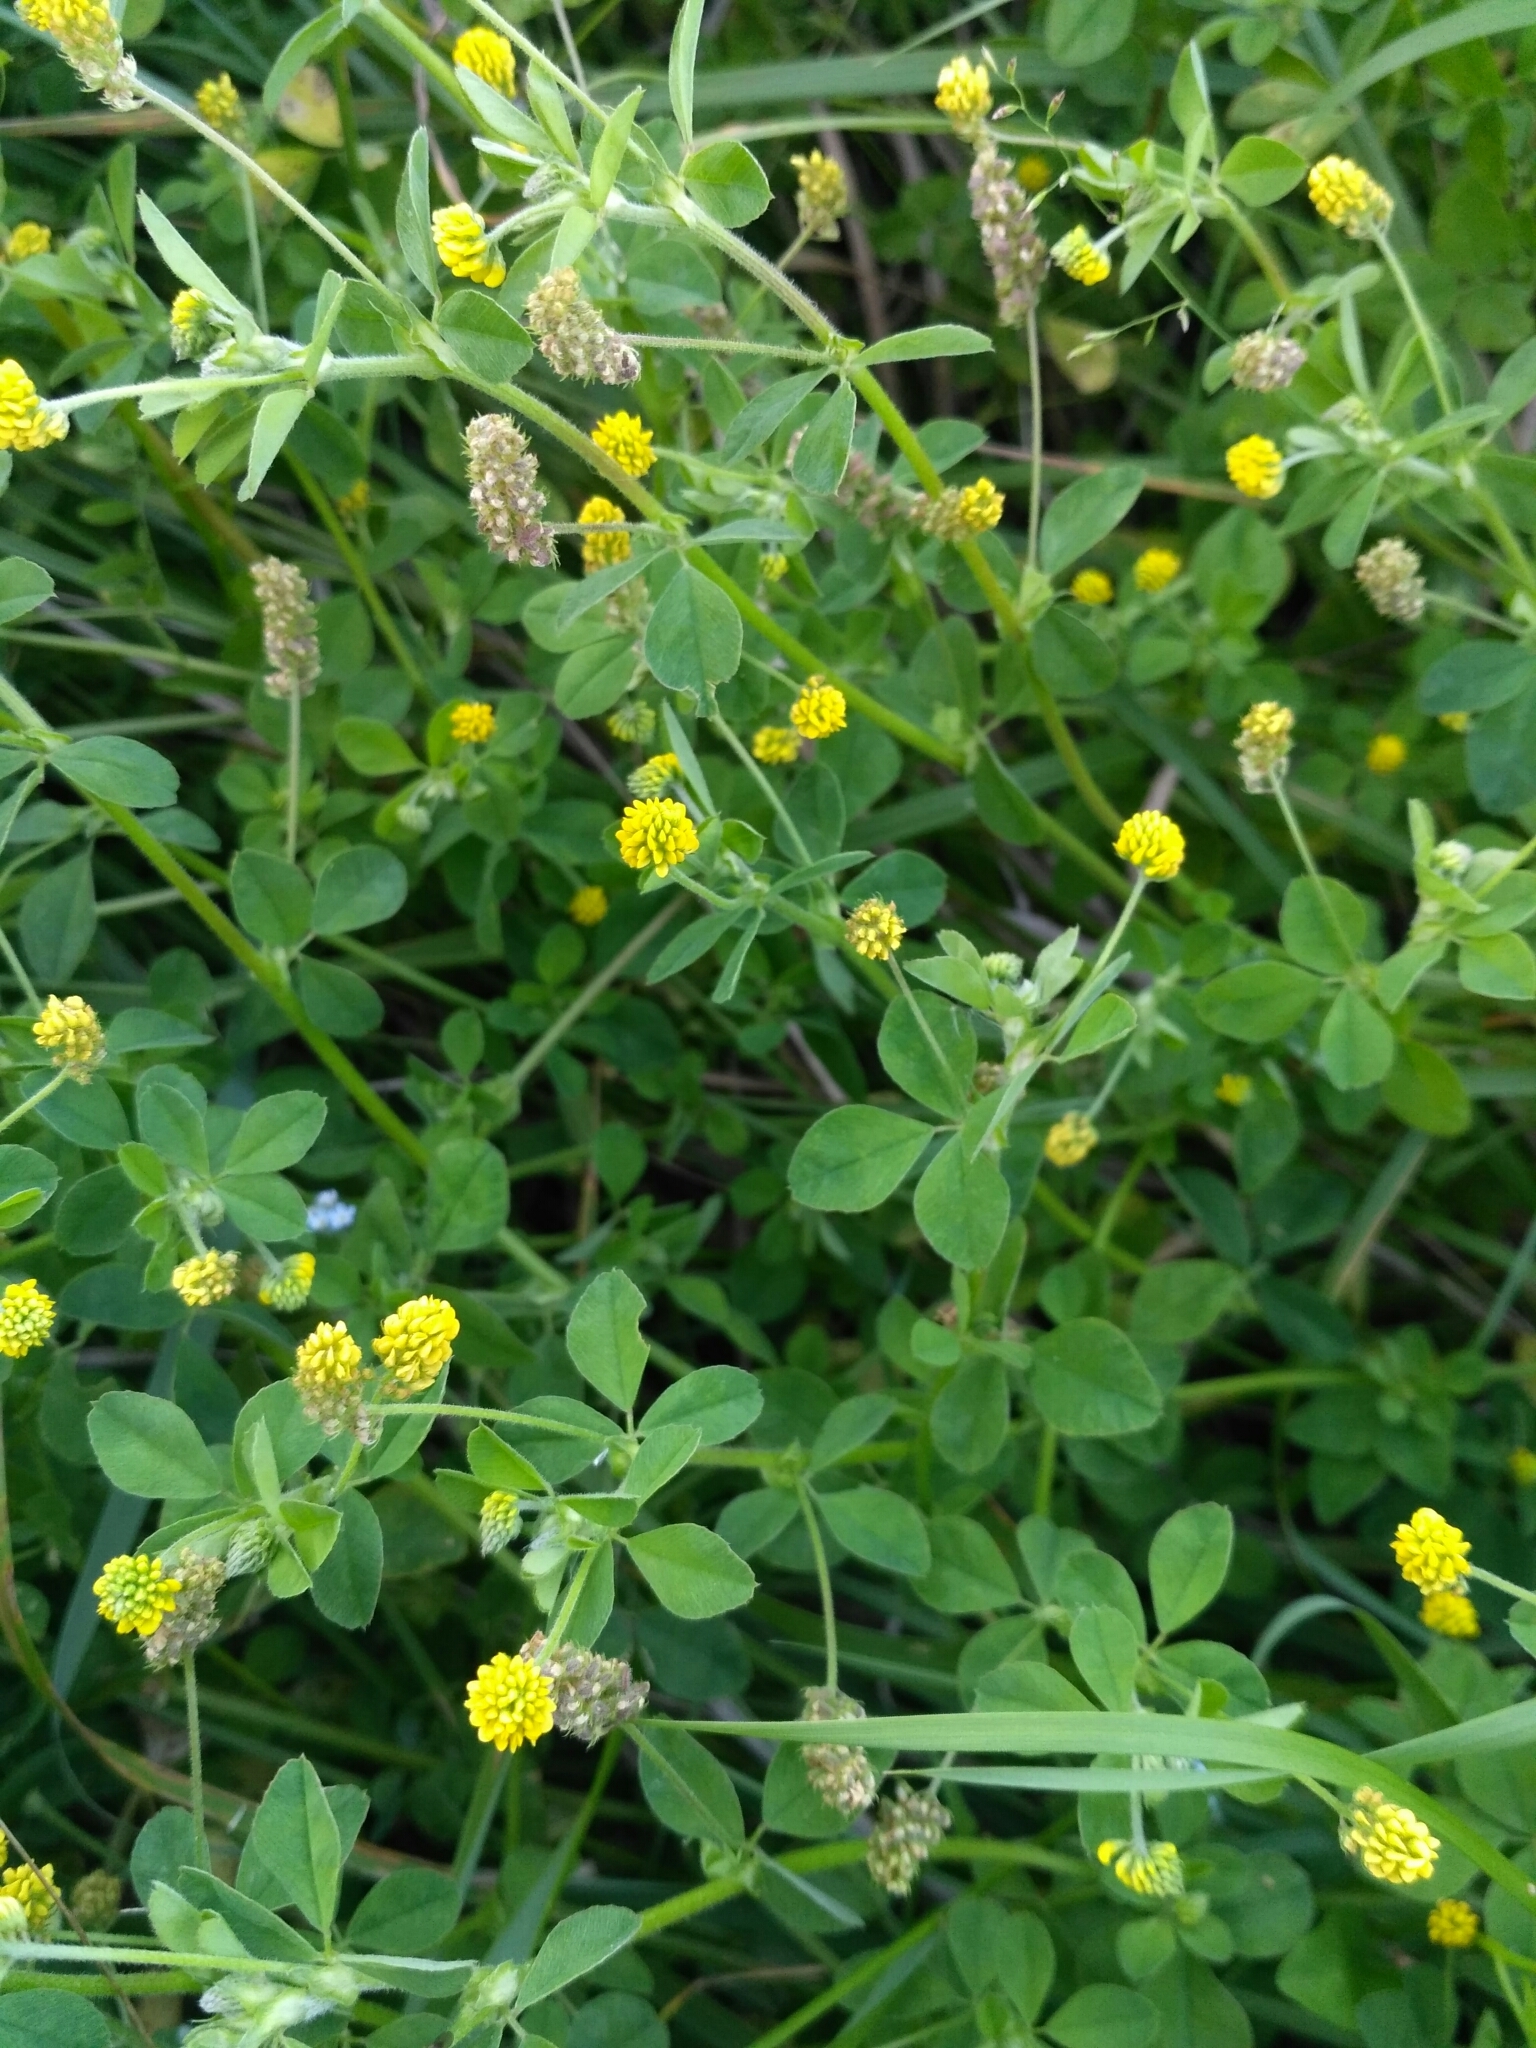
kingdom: Plantae
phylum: Tracheophyta
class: Magnoliopsida
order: Fabales
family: Fabaceae
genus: Medicago
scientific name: Medicago lupulina
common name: Black medick
